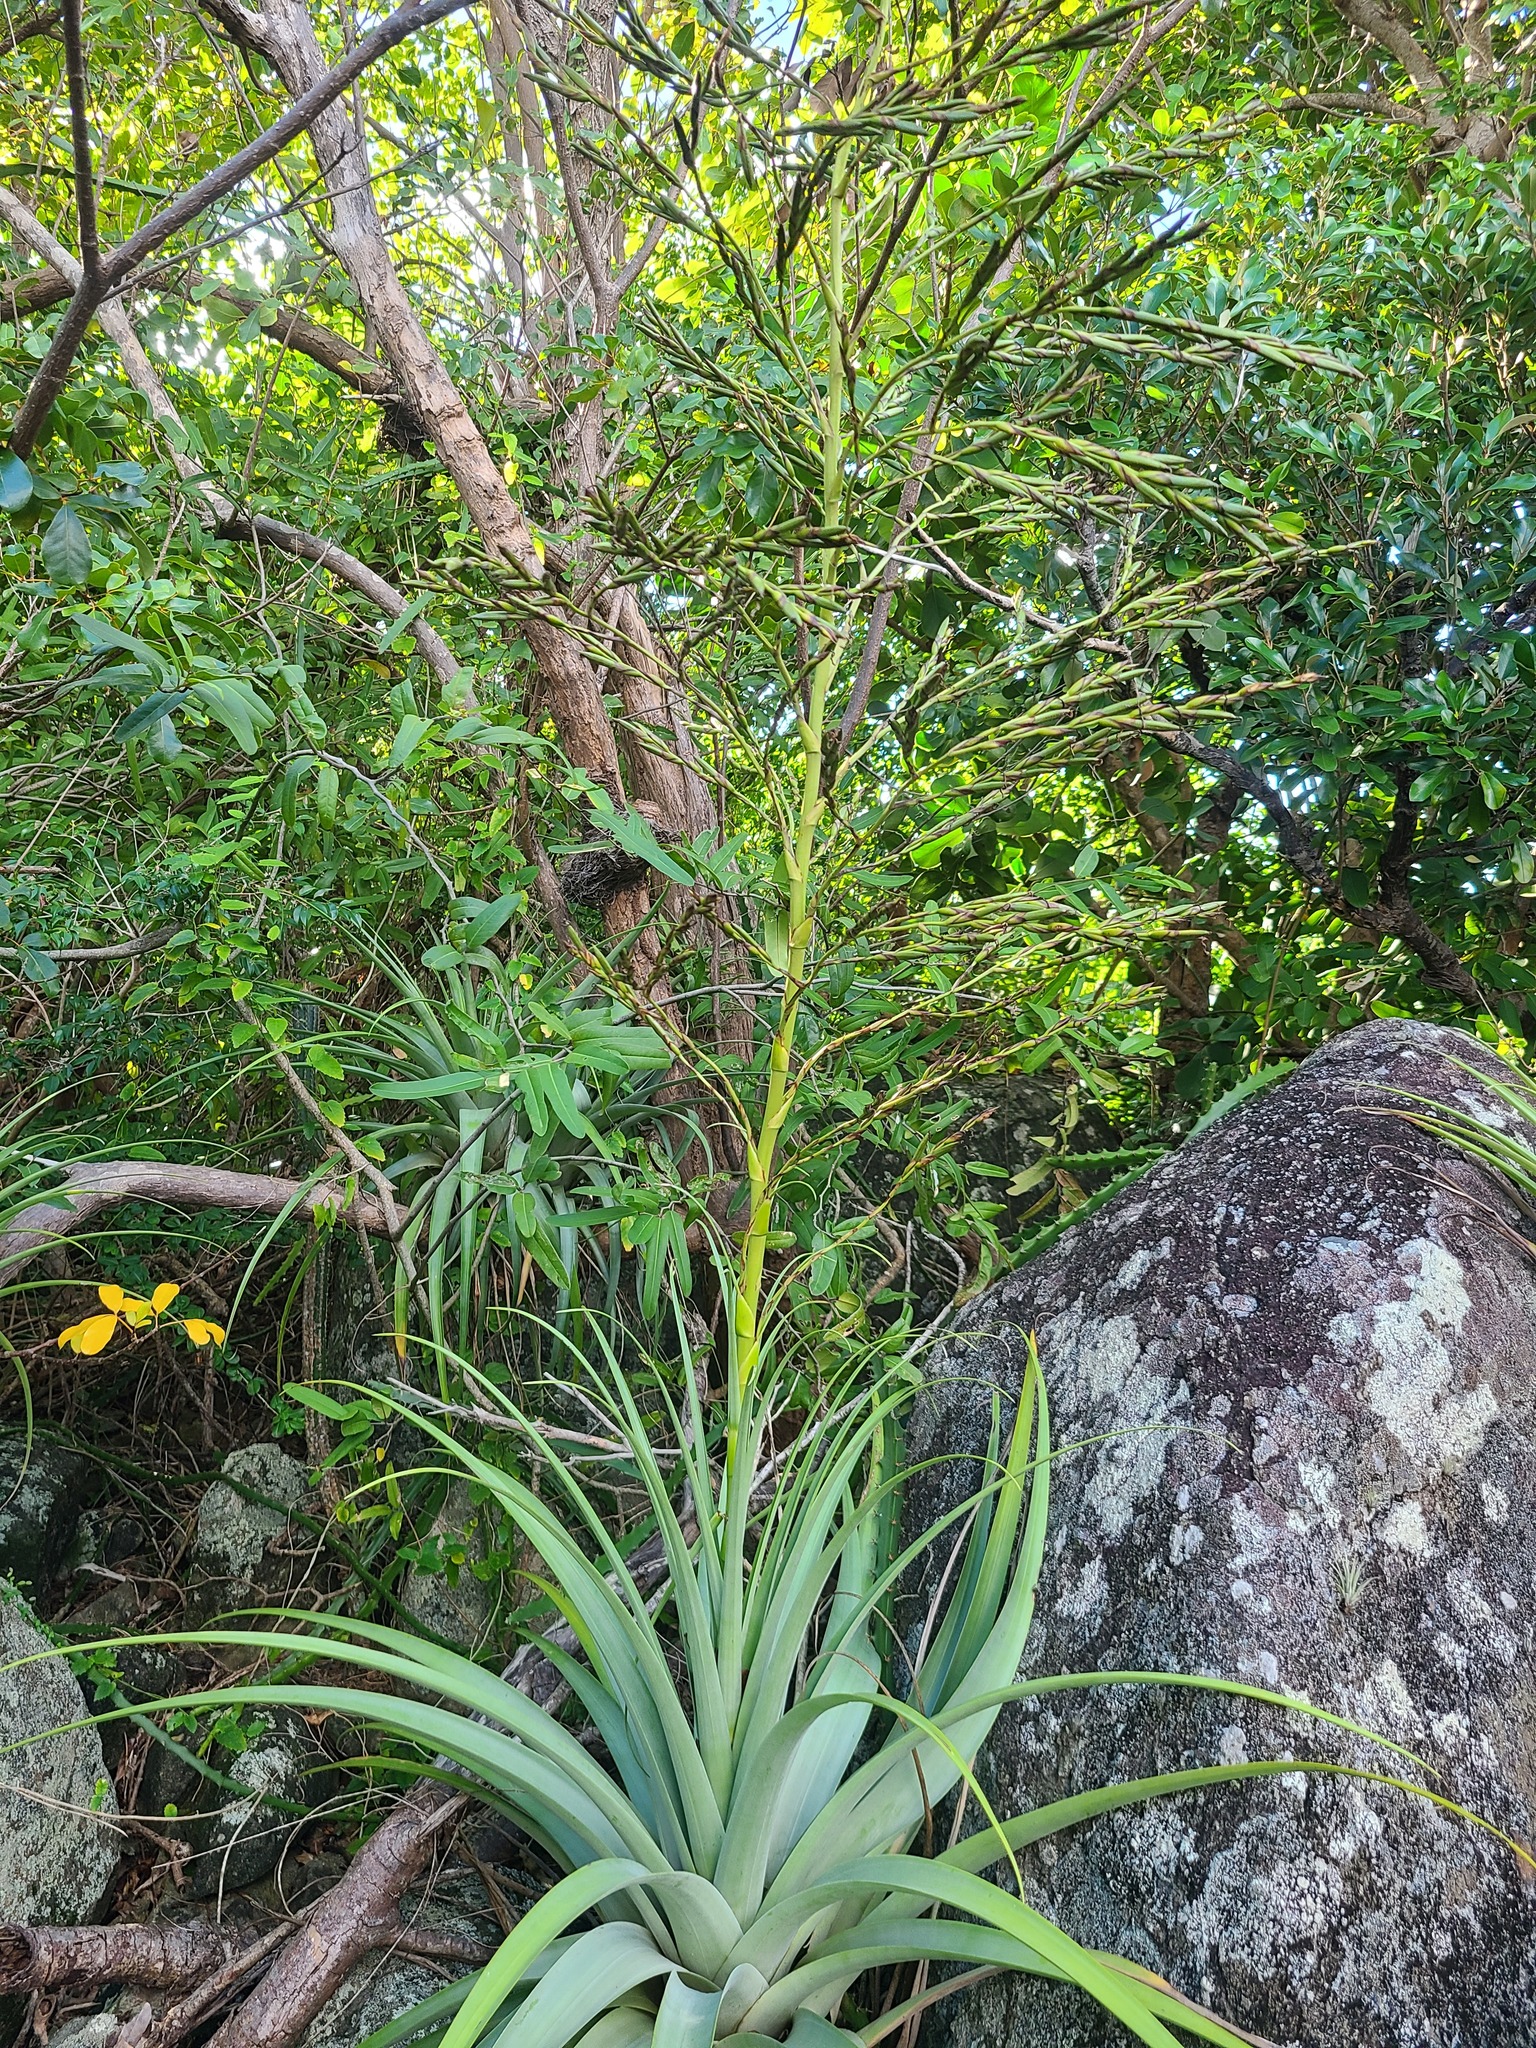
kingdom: Plantae
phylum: Tracheophyta
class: Liliopsida
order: Poales
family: Bromeliaceae
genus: Tillandsia
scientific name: Tillandsia utriculata
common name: Wild pine
